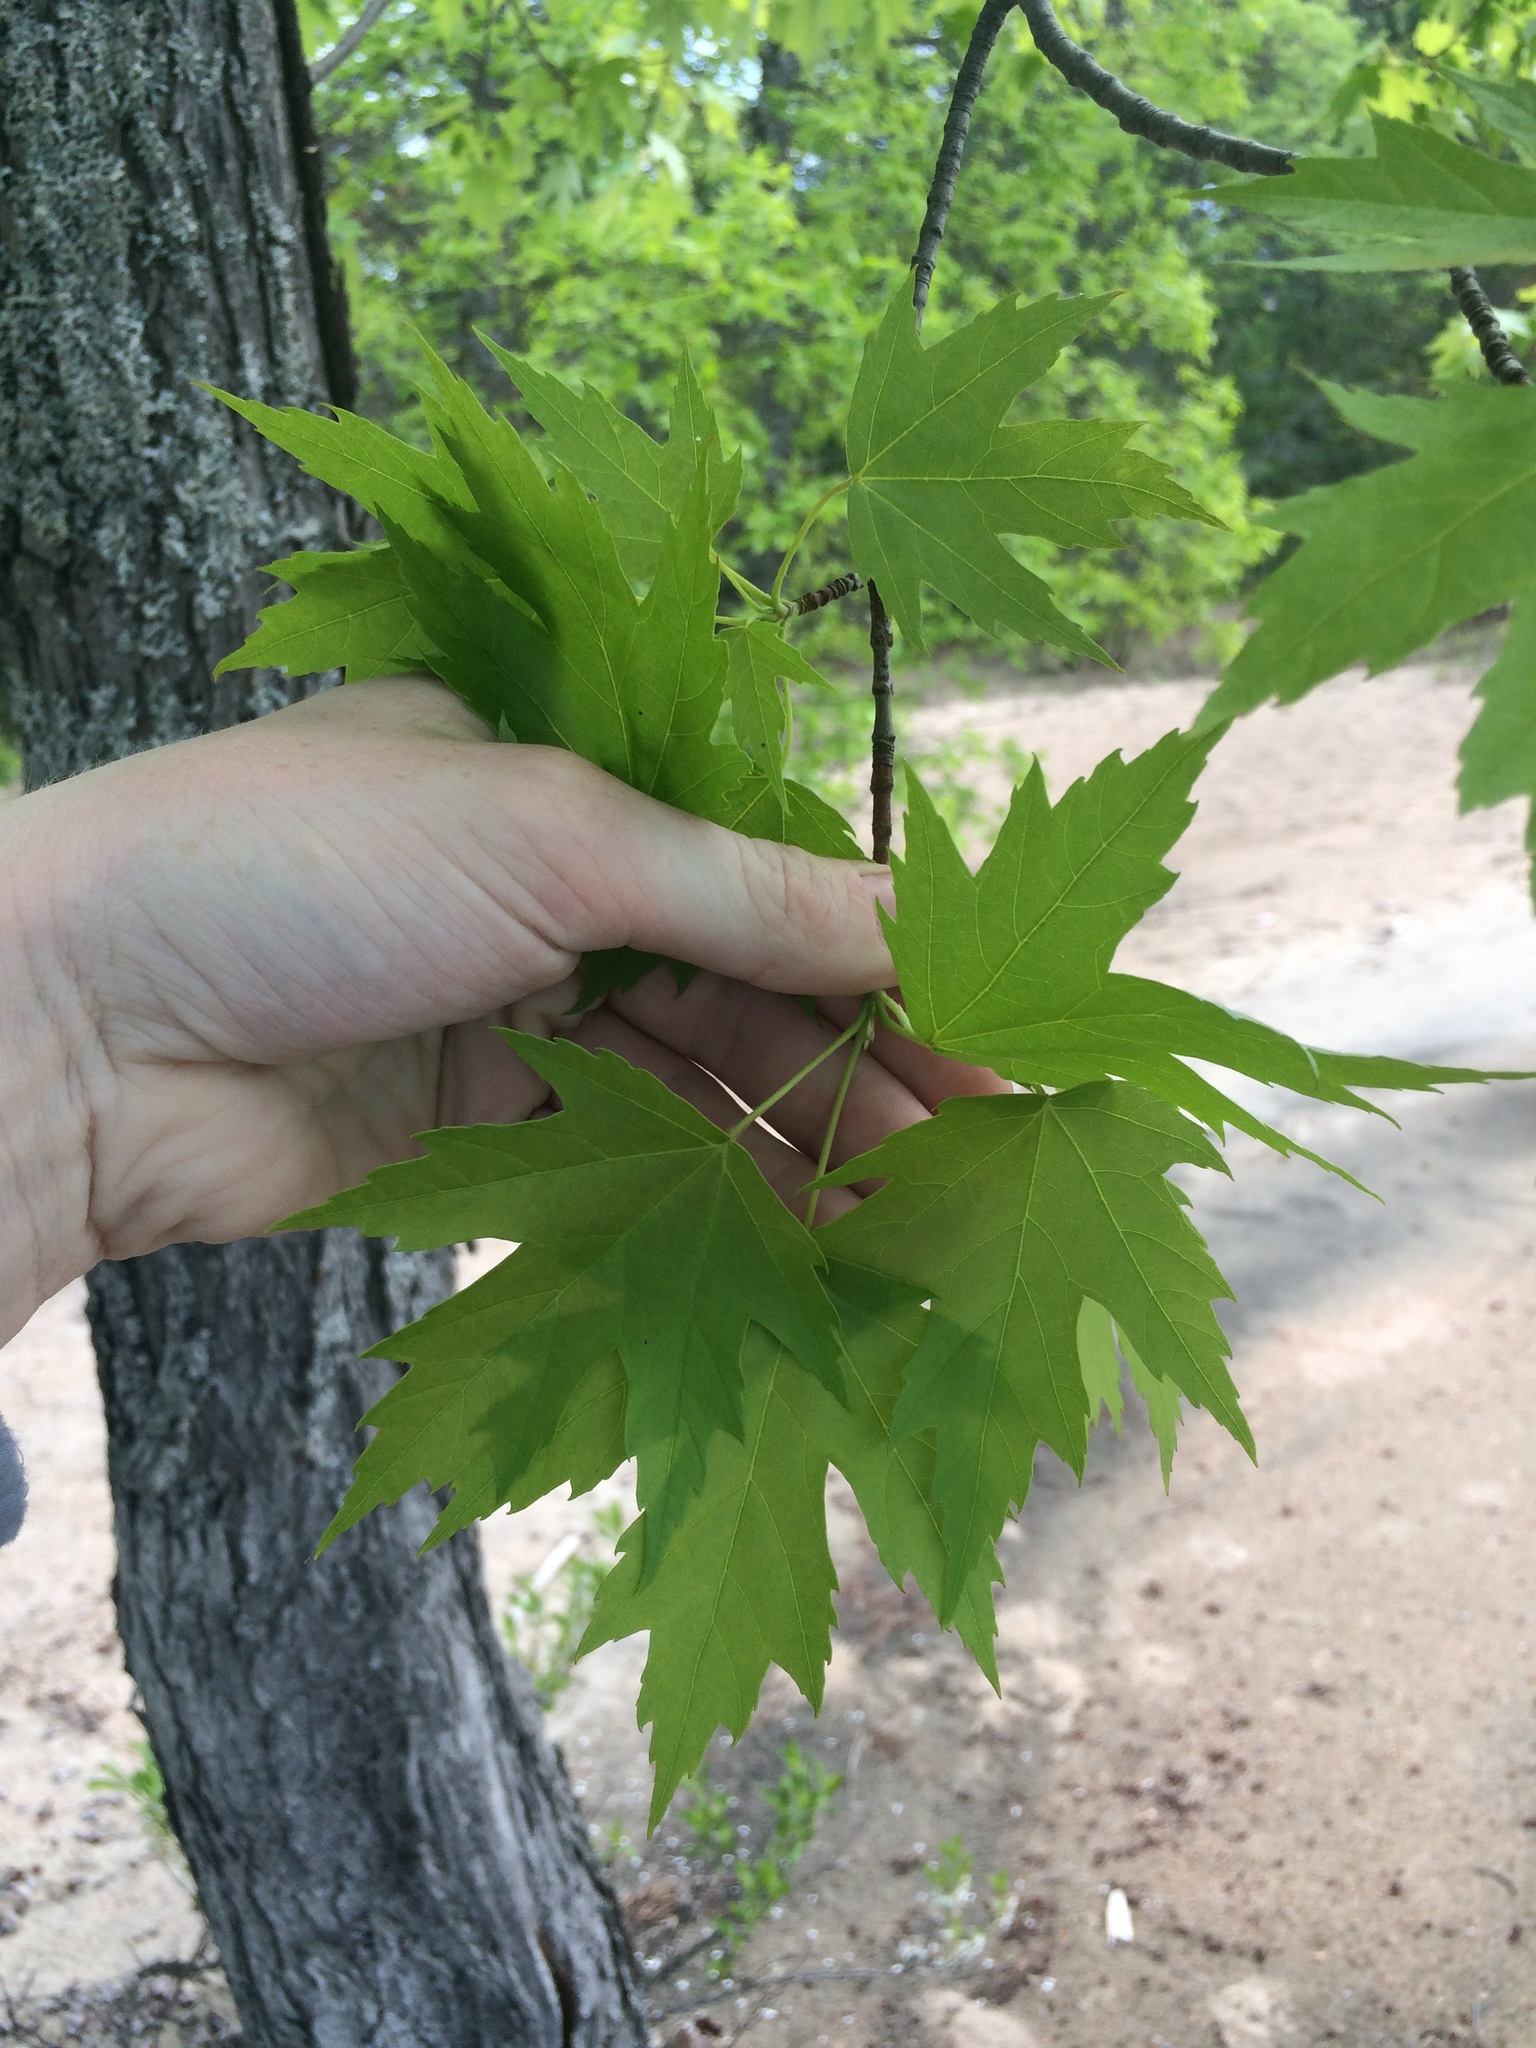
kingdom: Plantae
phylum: Tracheophyta
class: Magnoliopsida
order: Sapindales
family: Sapindaceae
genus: Acer
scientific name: Acer saccharinum
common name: Silver maple
